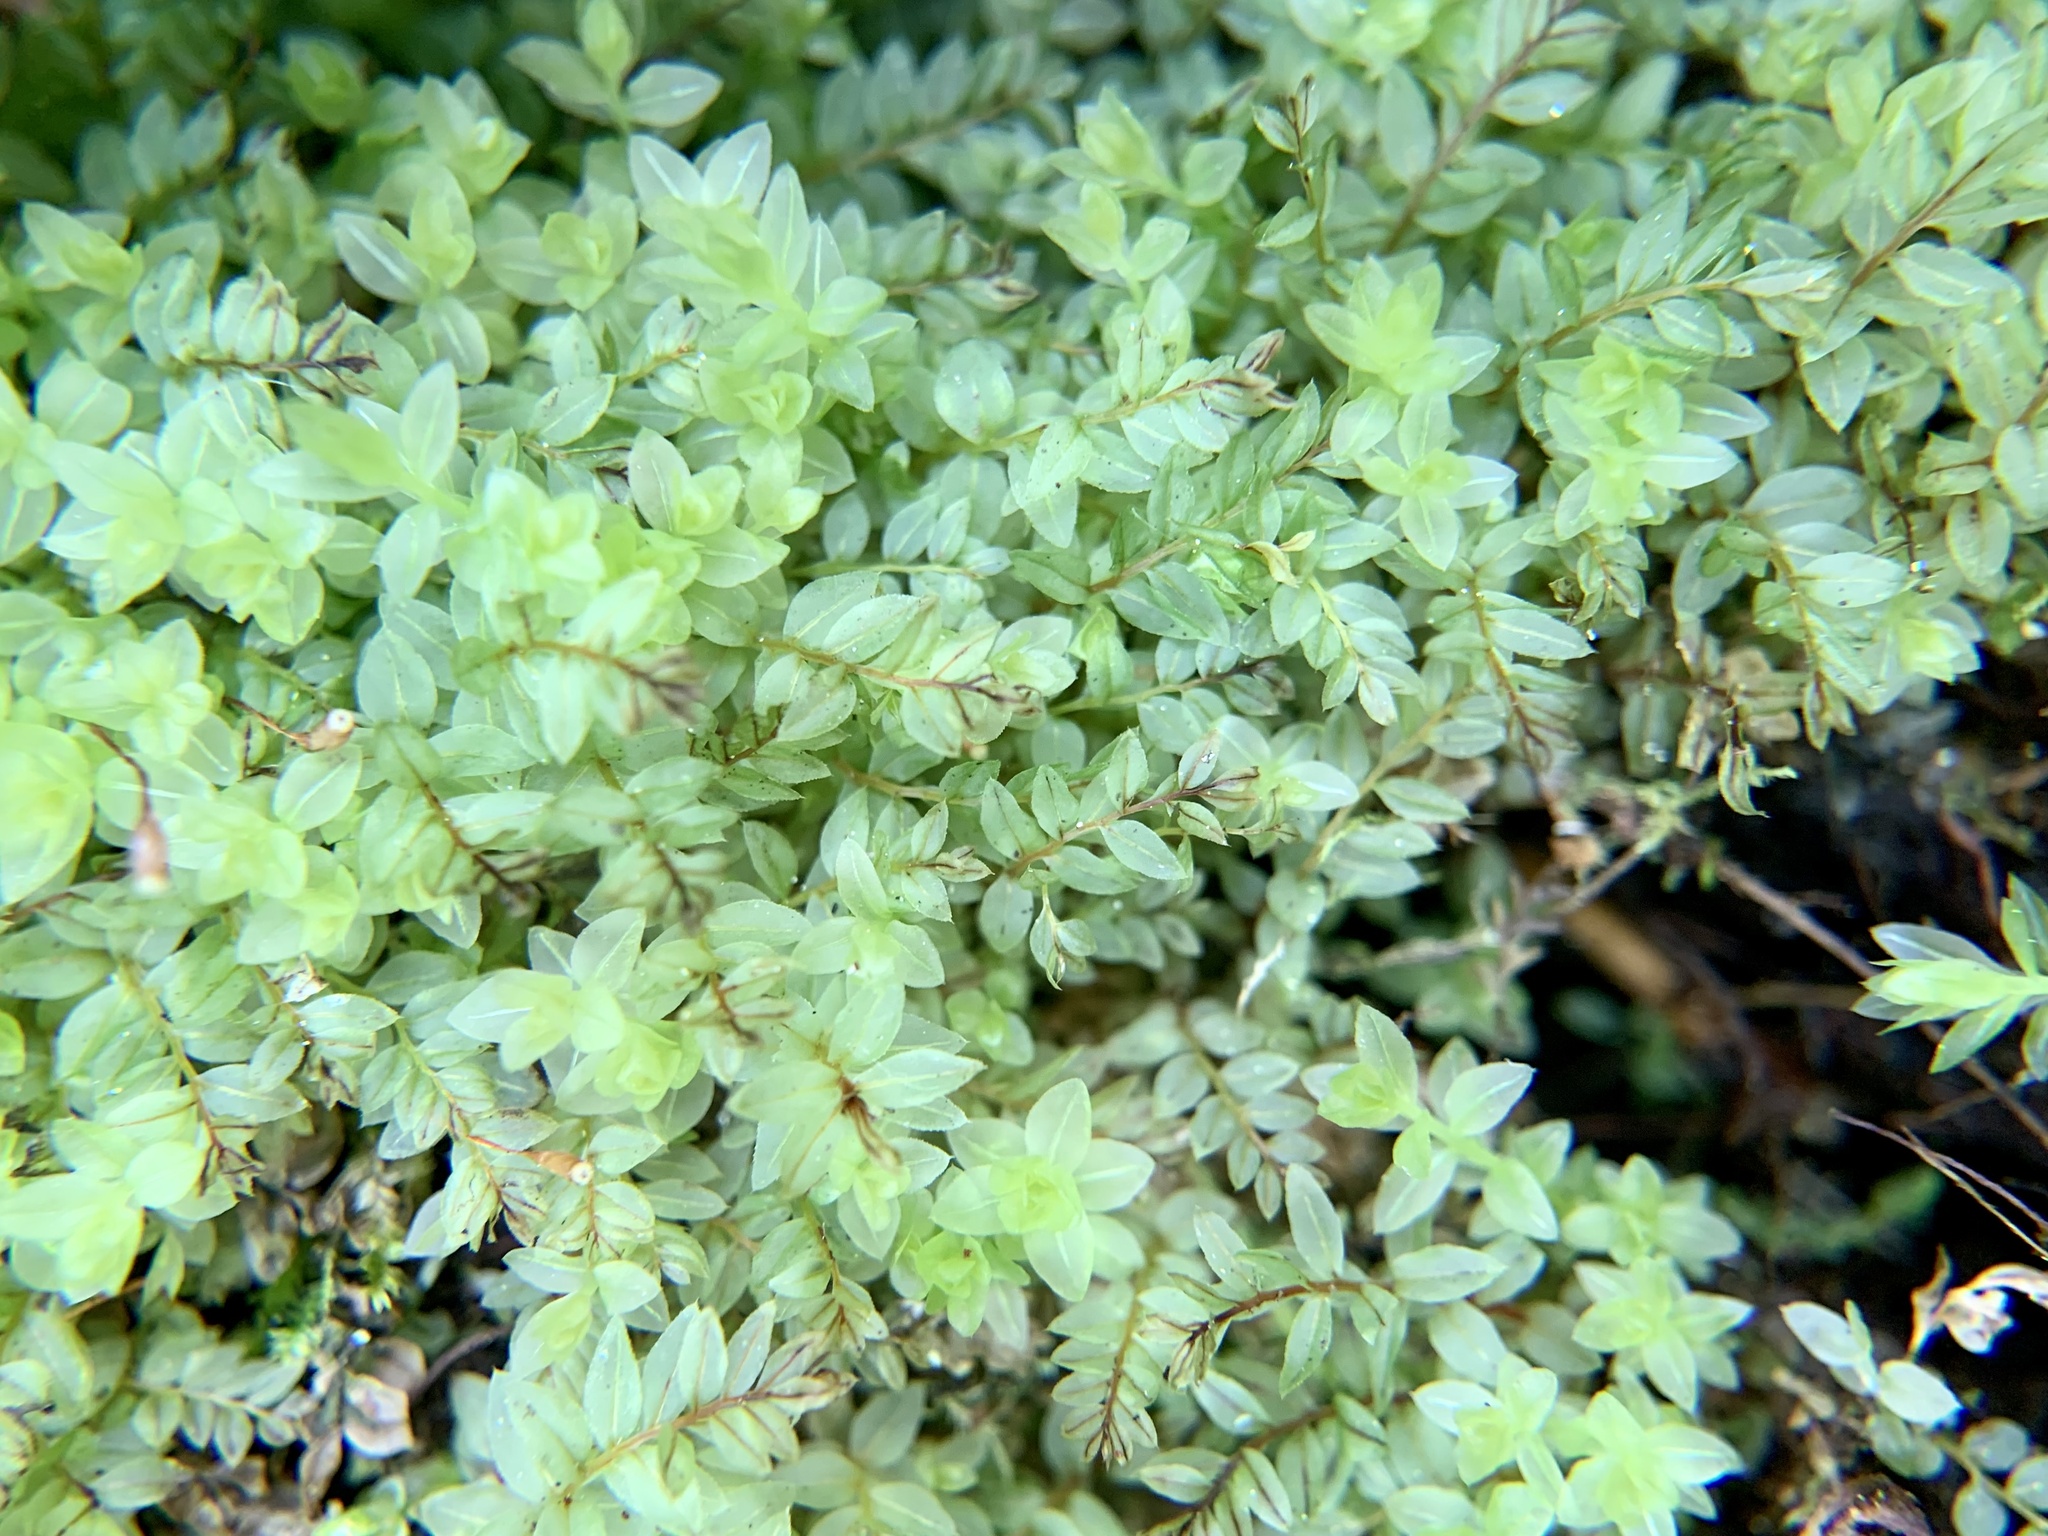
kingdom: Plantae
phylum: Bryophyta
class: Bryopsida
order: Bryales
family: Mniaceae
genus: Mnium
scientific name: Mnium stellare
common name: Star leafy moss
